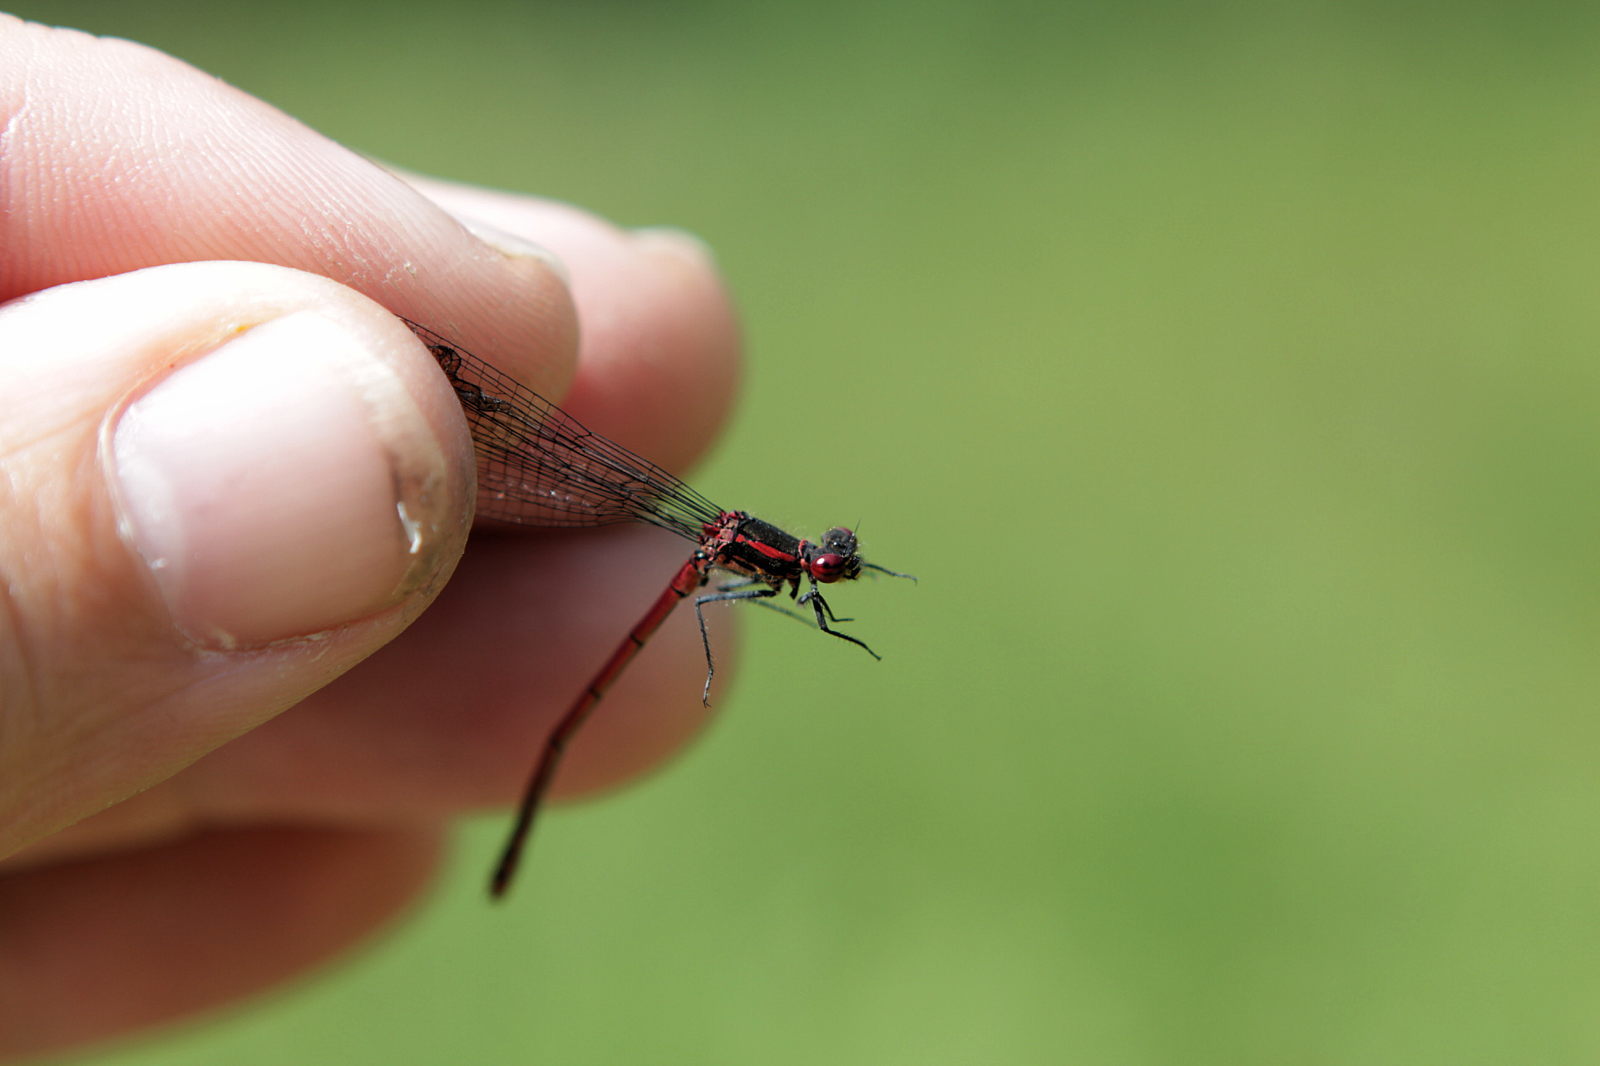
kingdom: Animalia
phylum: Arthropoda
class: Insecta
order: Odonata
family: Coenagrionidae
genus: Pyrrhosoma
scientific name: Pyrrhosoma nymphula
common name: Large red damsel
